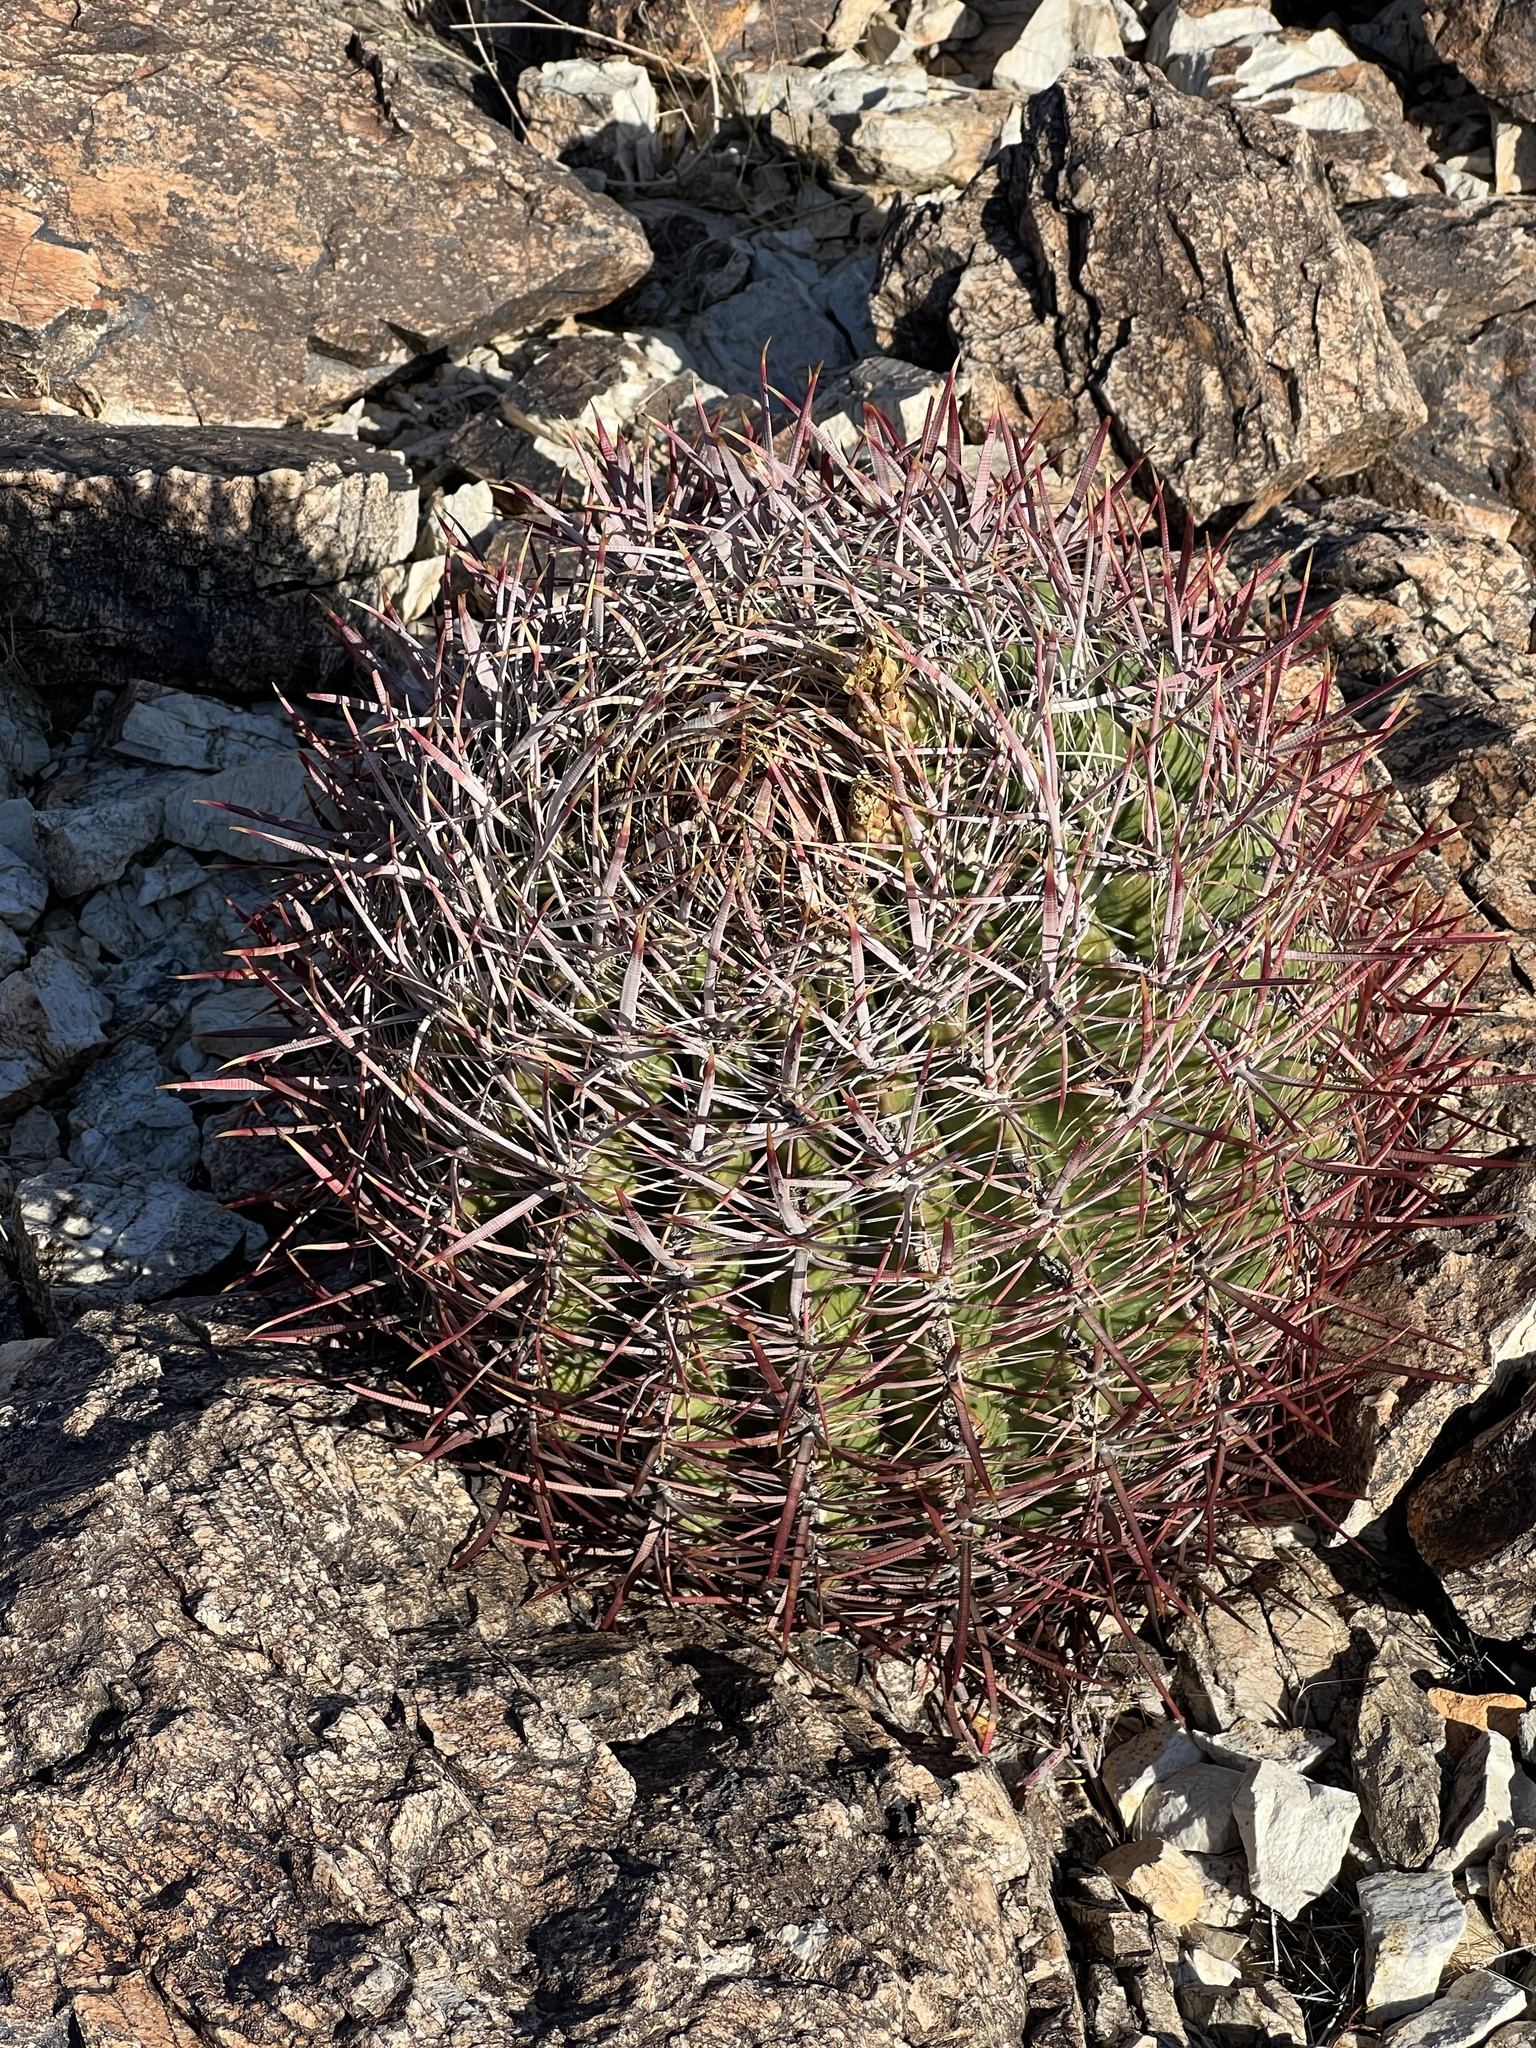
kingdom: Plantae
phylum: Tracheophyta
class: Magnoliopsida
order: Caryophyllales
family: Cactaceae
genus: Ferocactus
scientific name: Ferocactus cylindraceus
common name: California barrel cactus
